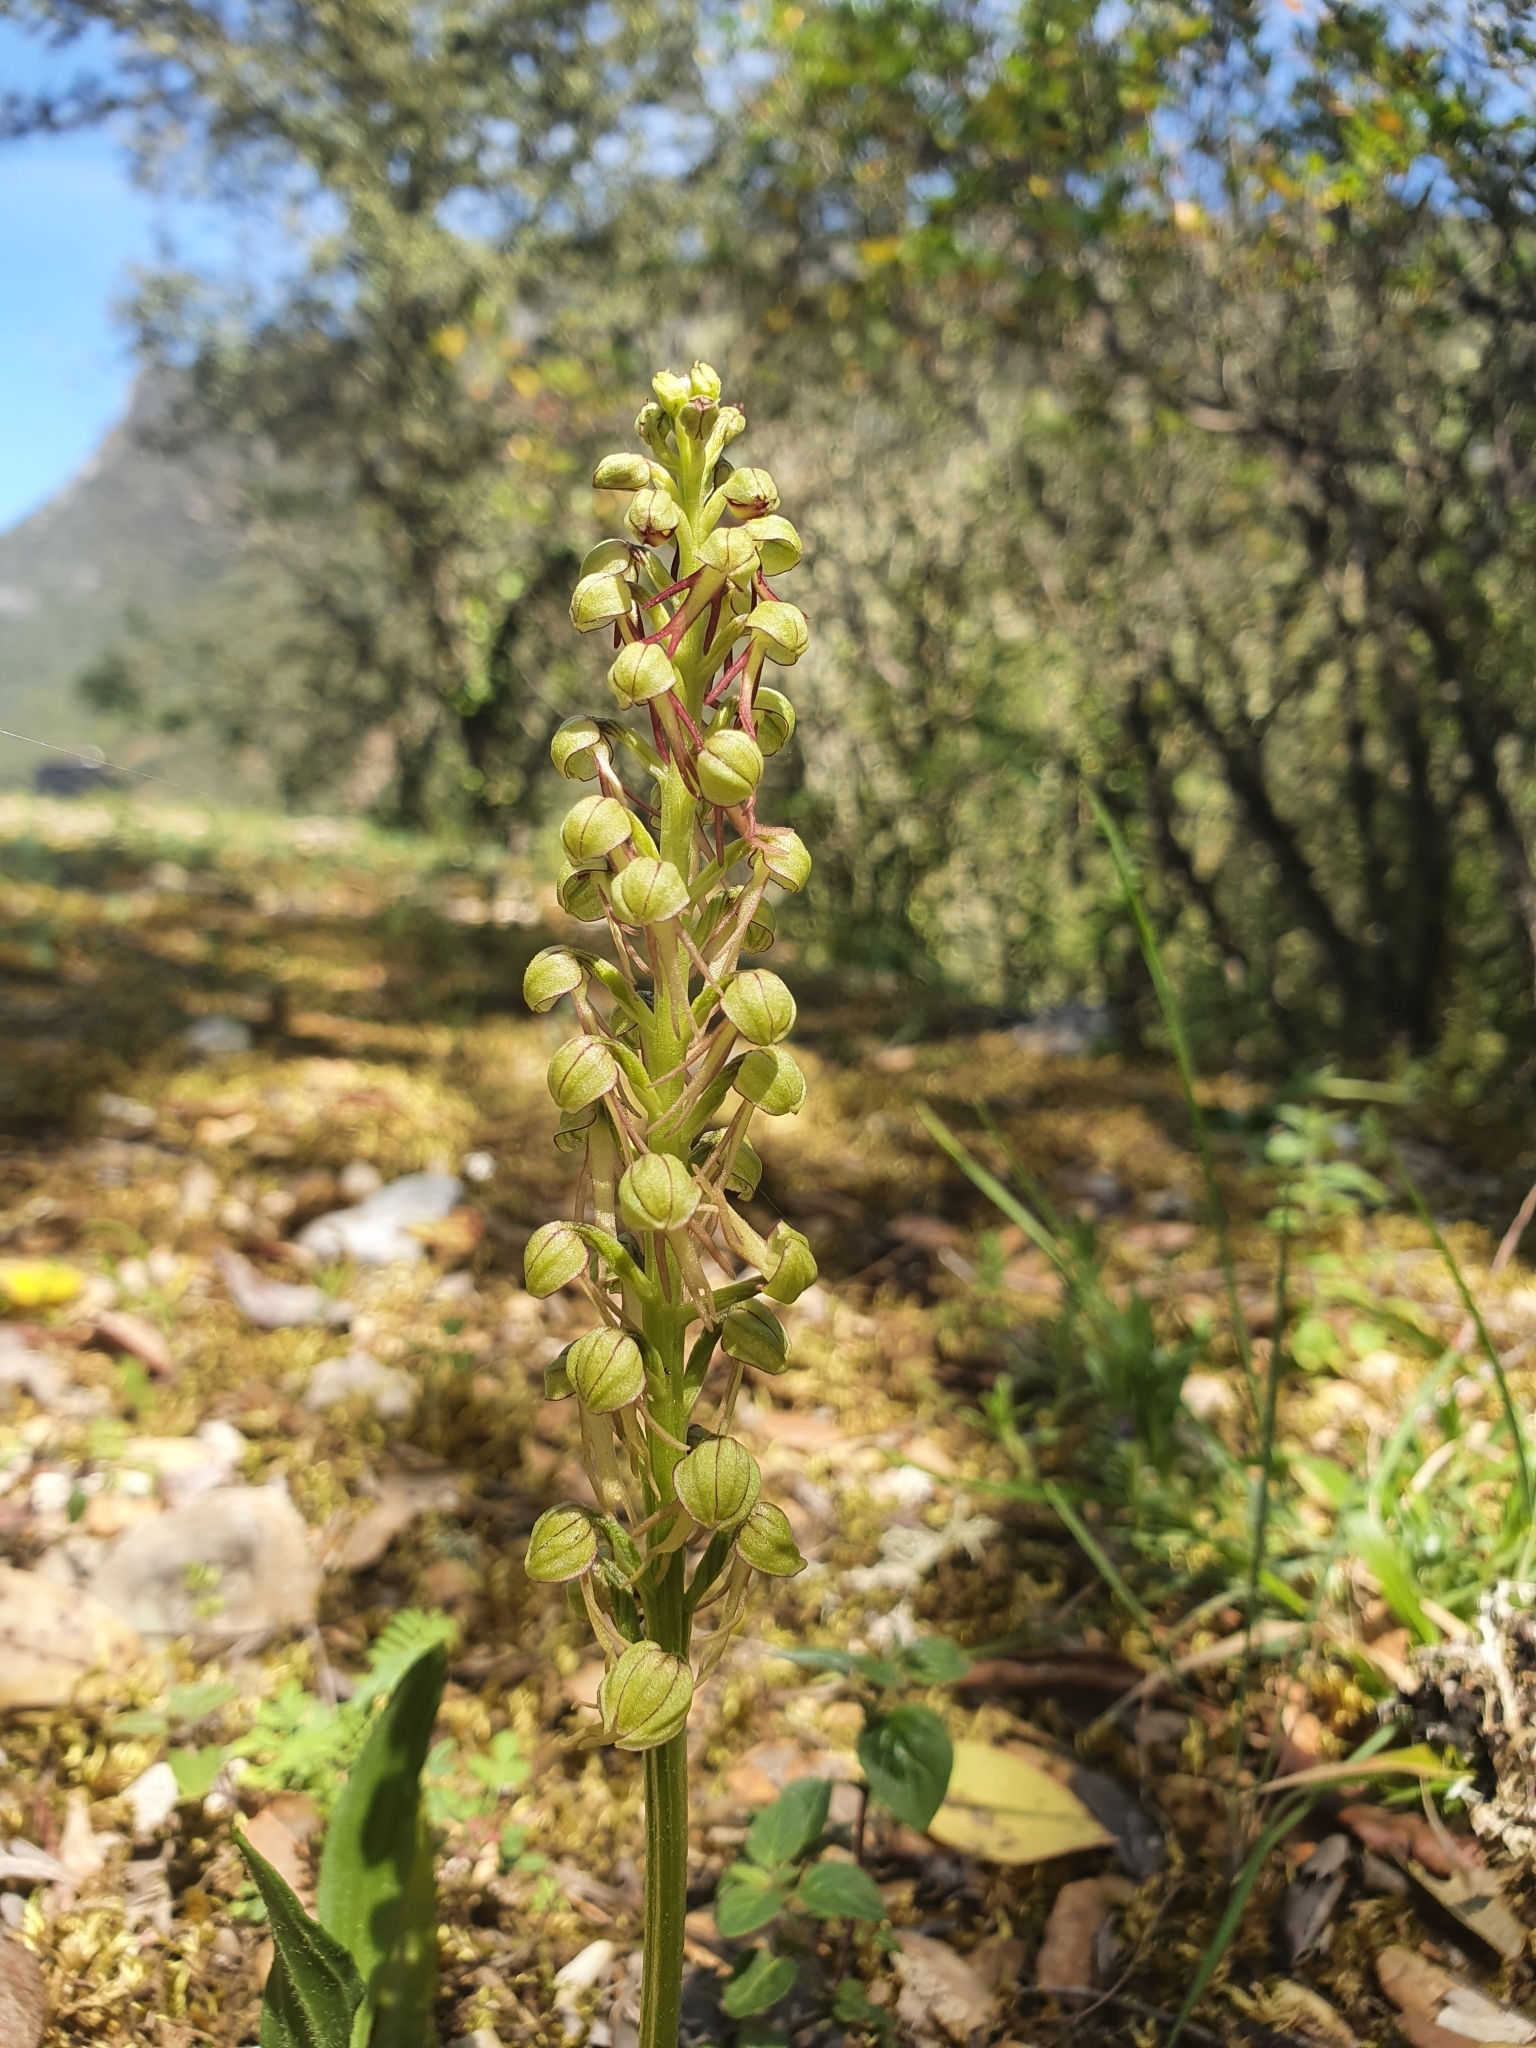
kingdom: Plantae
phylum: Tracheophyta
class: Liliopsida
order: Asparagales
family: Orchidaceae
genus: Orchis
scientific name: Orchis anthropophora
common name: Man orchid
